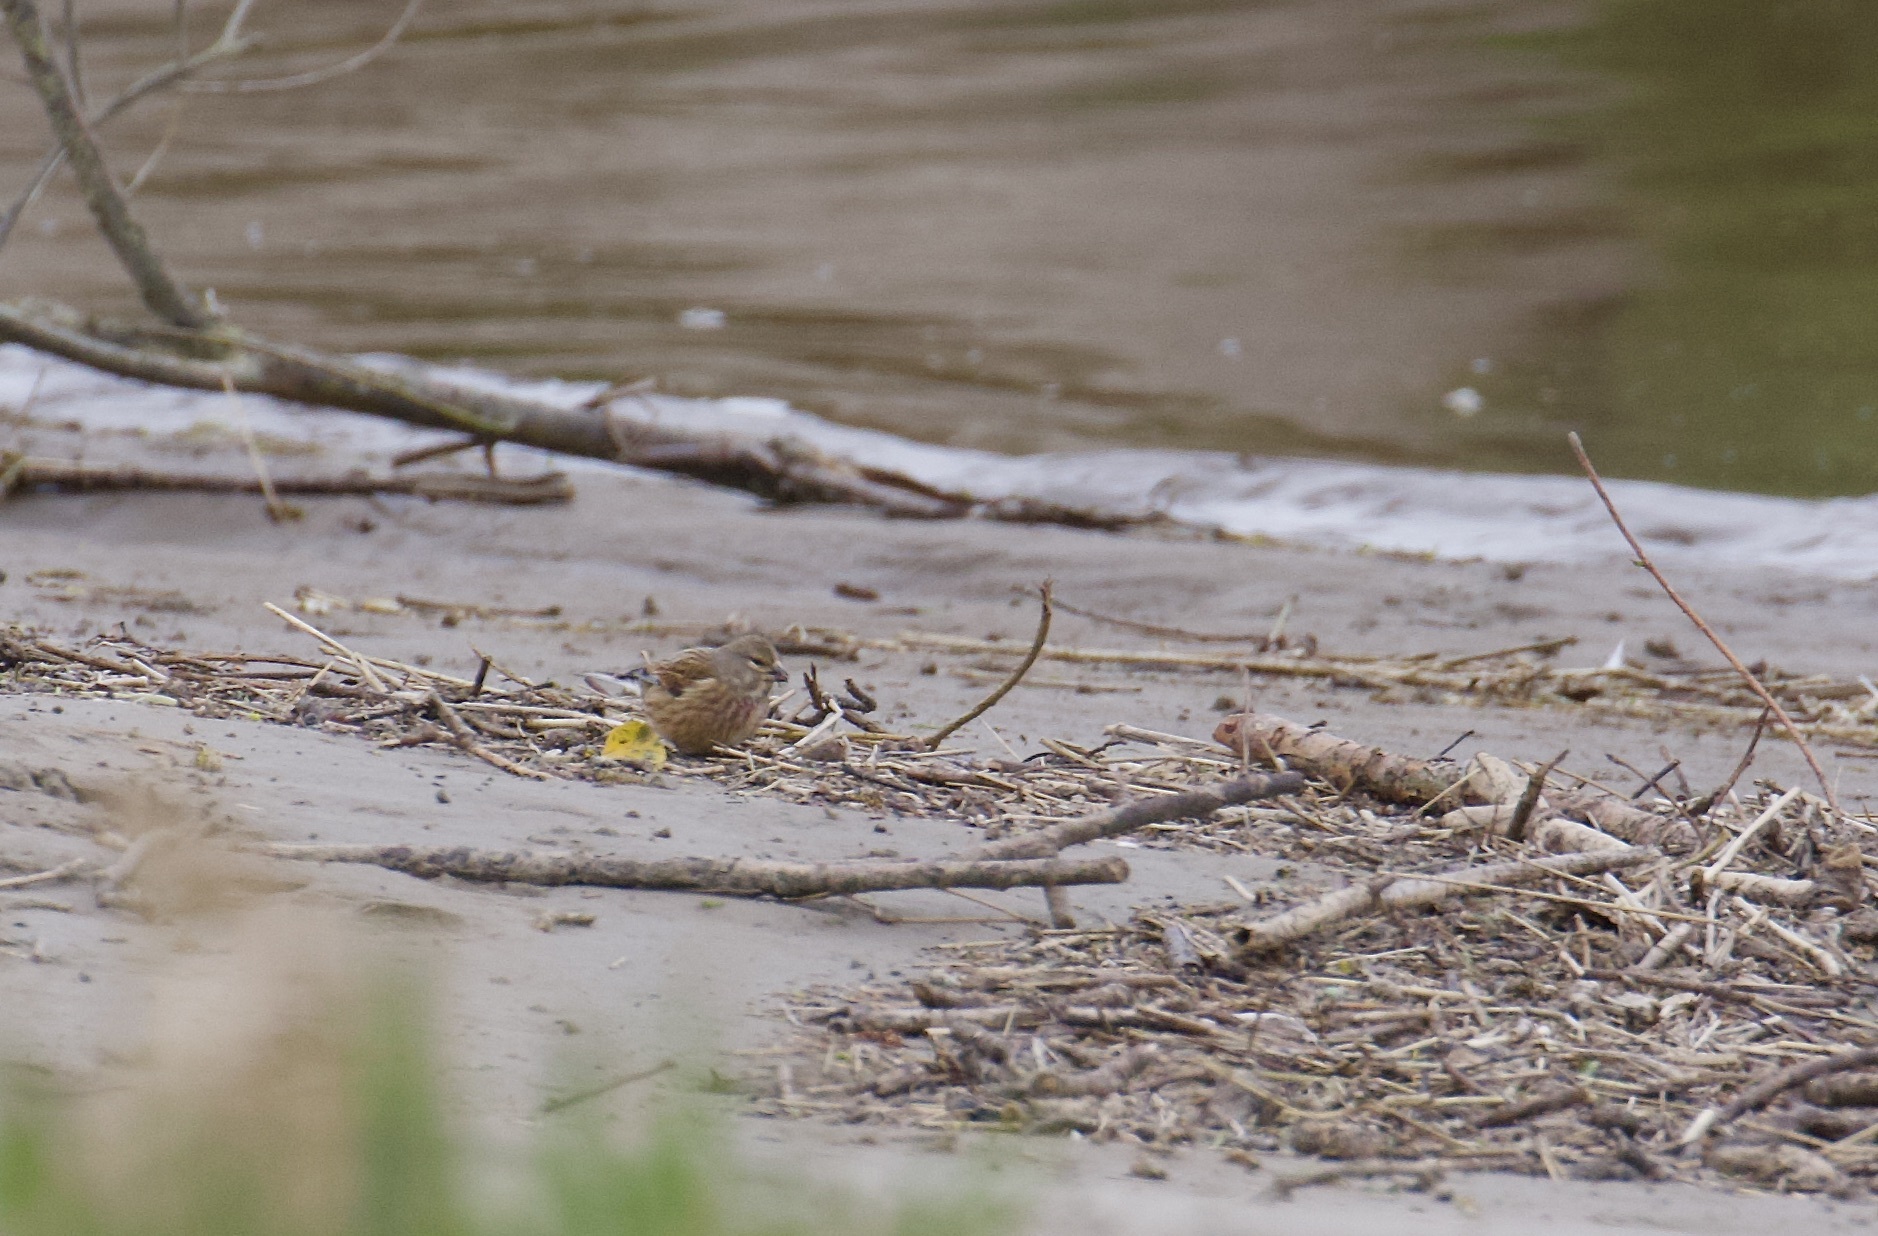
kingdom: Animalia
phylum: Chordata
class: Aves
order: Passeriformes
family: Fringillidae
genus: Linaria
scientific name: Linaria cannabina
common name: Common linnet
